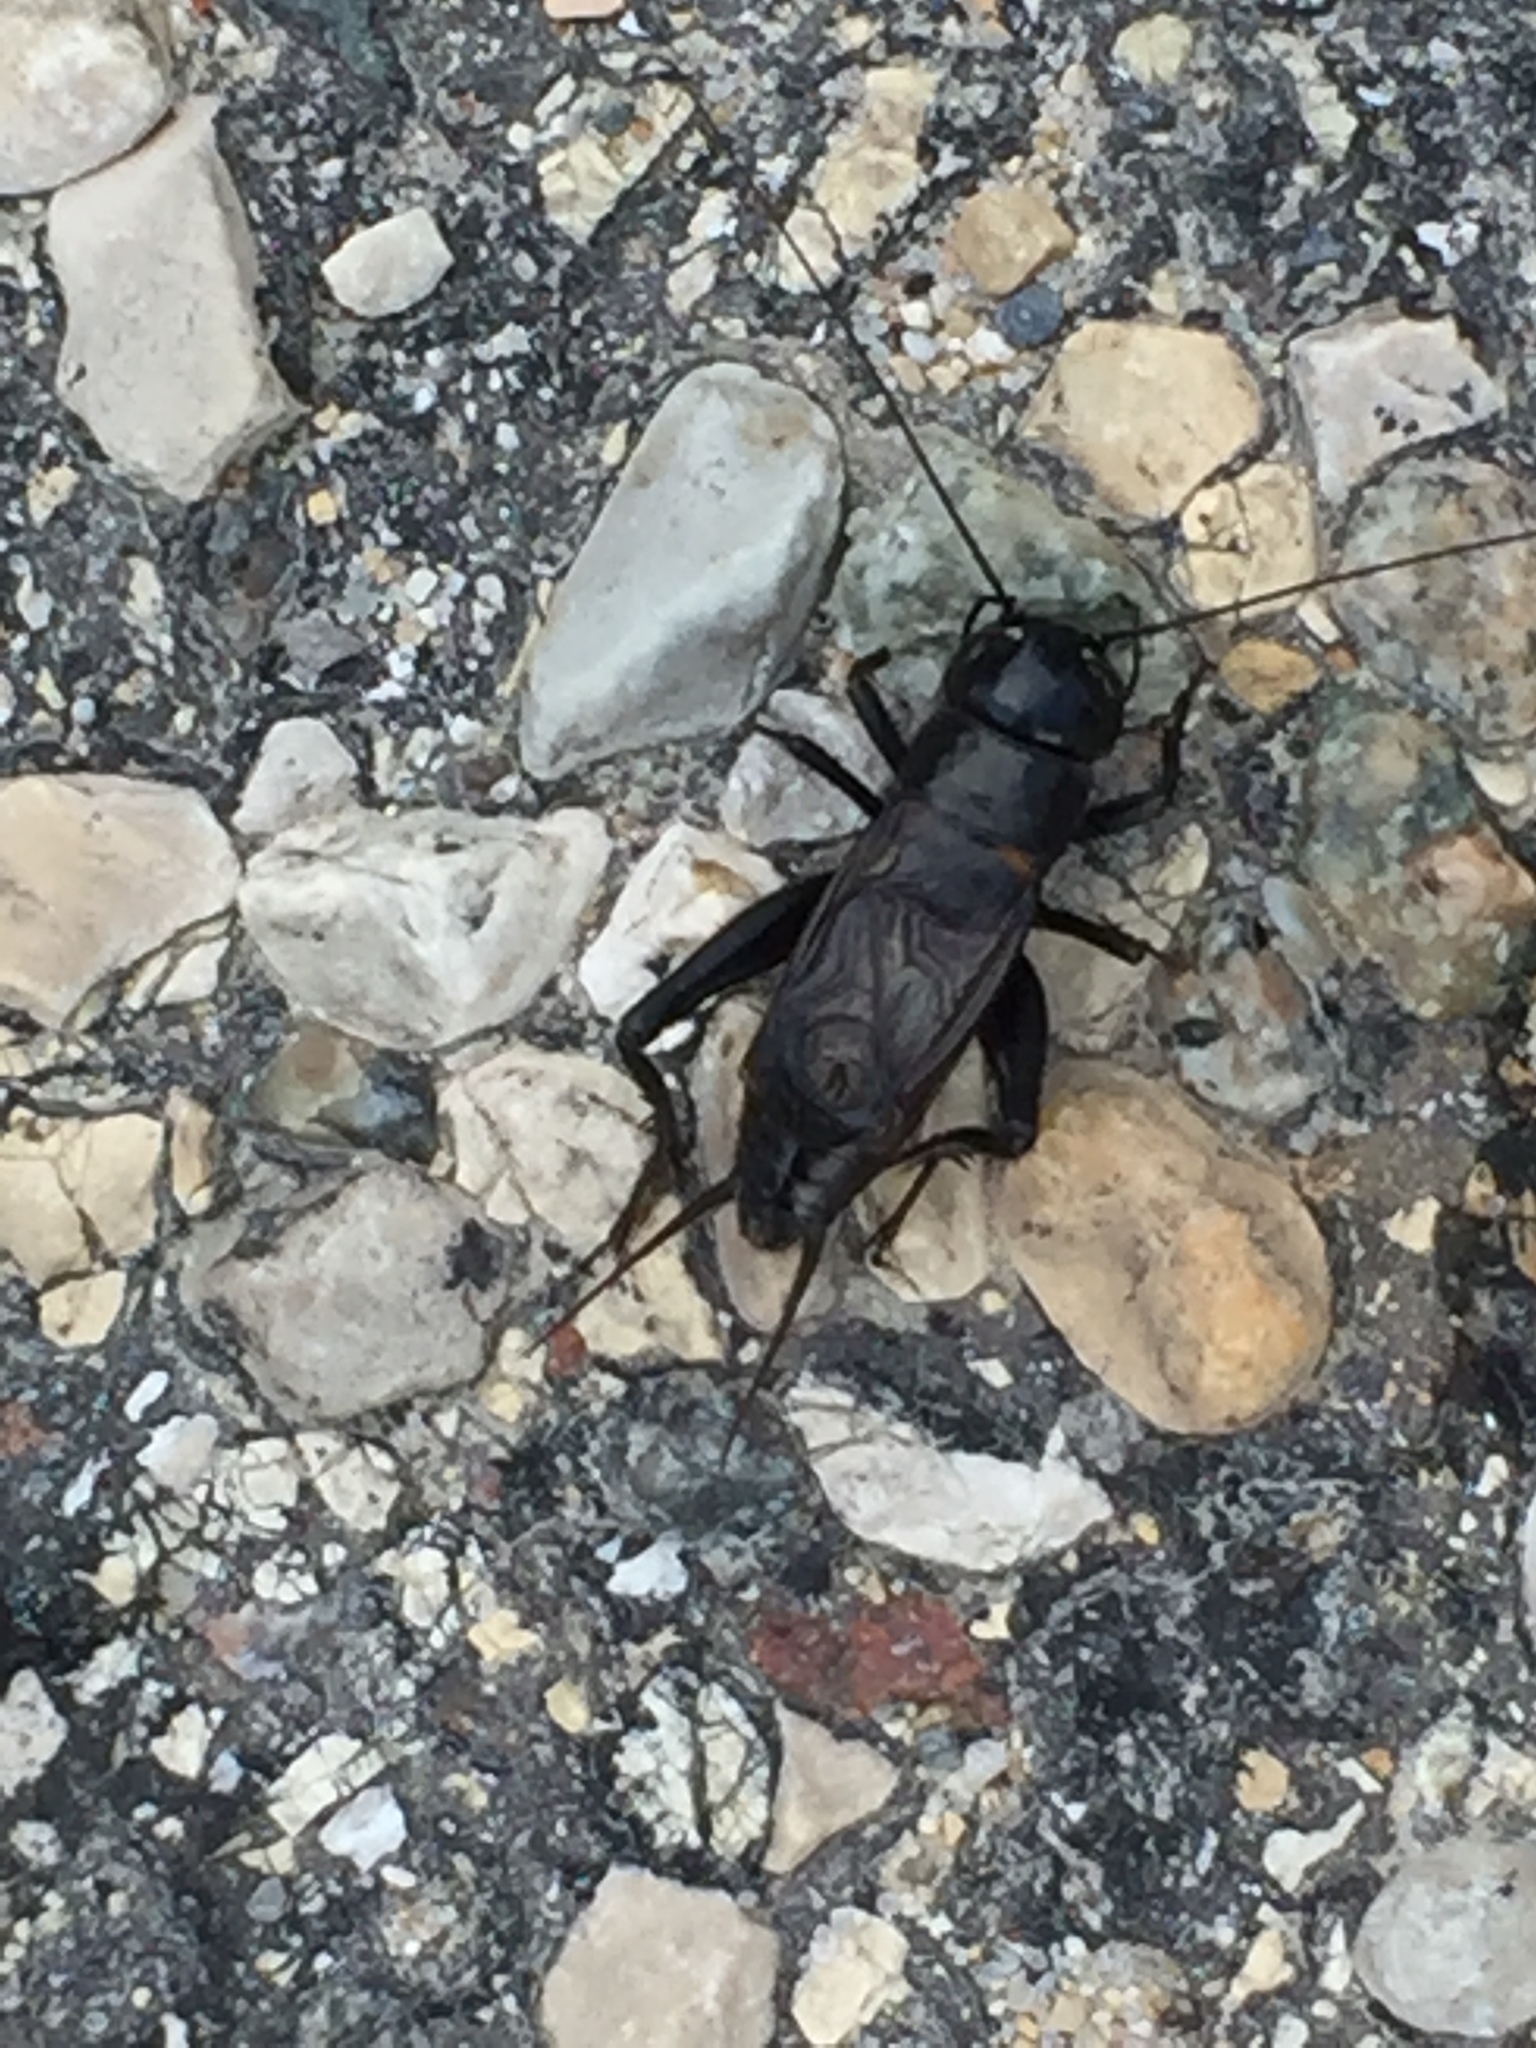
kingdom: Animalia
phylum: Arthropoda
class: Insecta
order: Orthoptera
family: Gryllidae
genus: Gryllus
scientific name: Gryllus pennsylvanicus
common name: Fall field cricket
